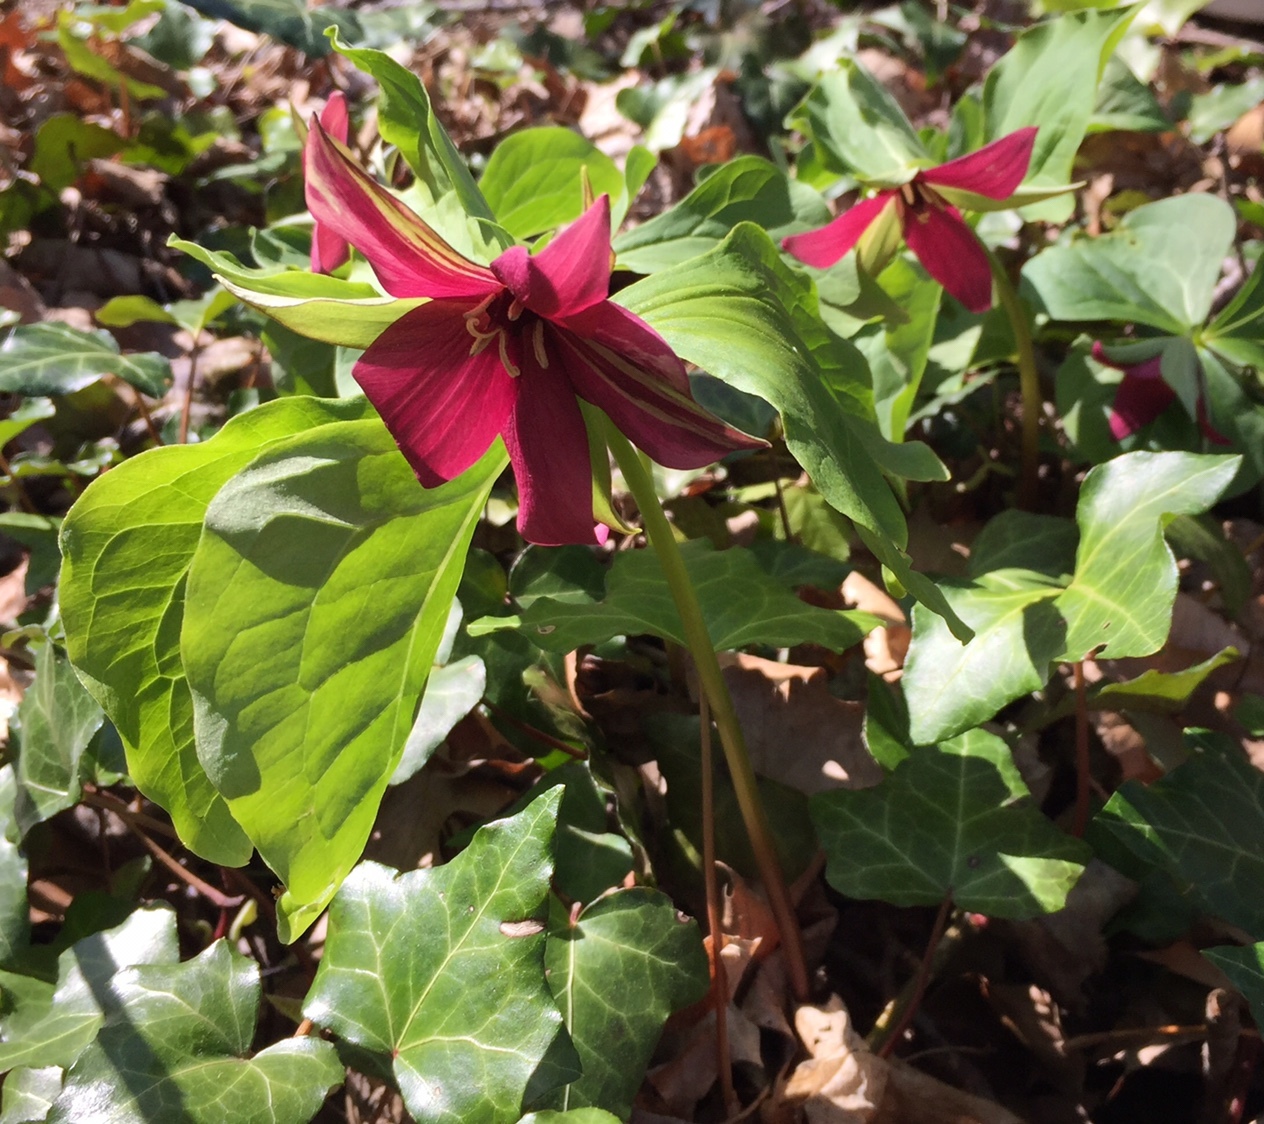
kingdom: Plantae
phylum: Tracheophyta
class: Liliopsida
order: Liliales
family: Melanthiaceae
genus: Trillium
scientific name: Trillium erectum
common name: Purple trillium
